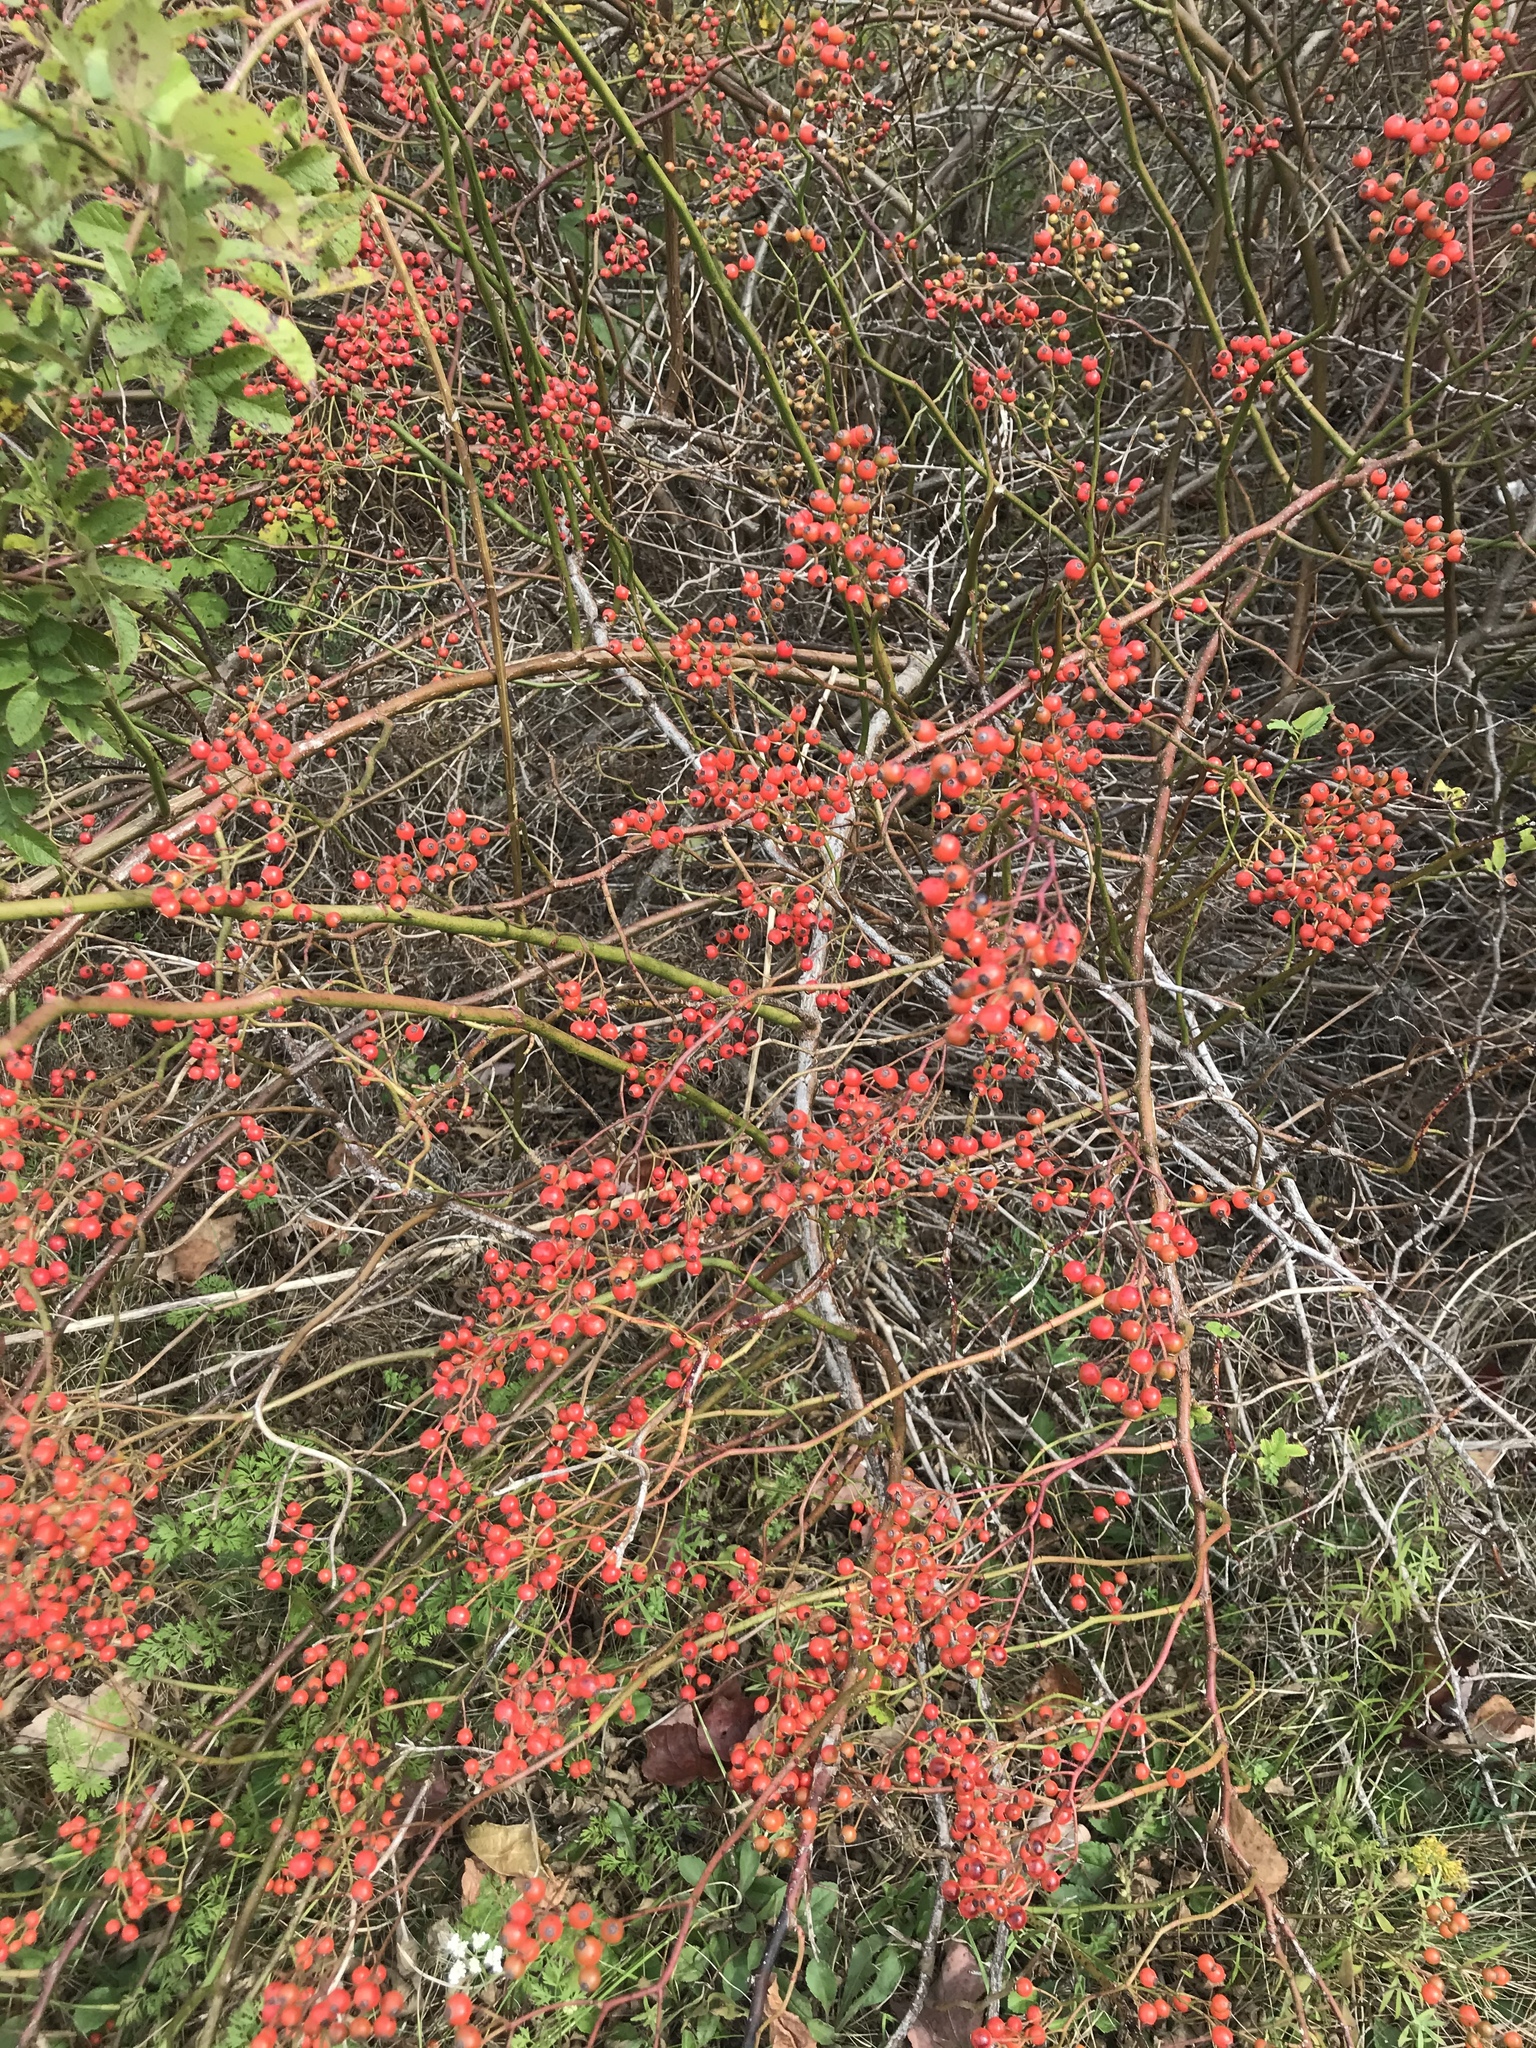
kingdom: Plantae
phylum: Tracheophyta
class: Magnoliopsida
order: Rosales
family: Rosaceae
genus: Rosa
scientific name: Rosa multiflora
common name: Multiflora rose
